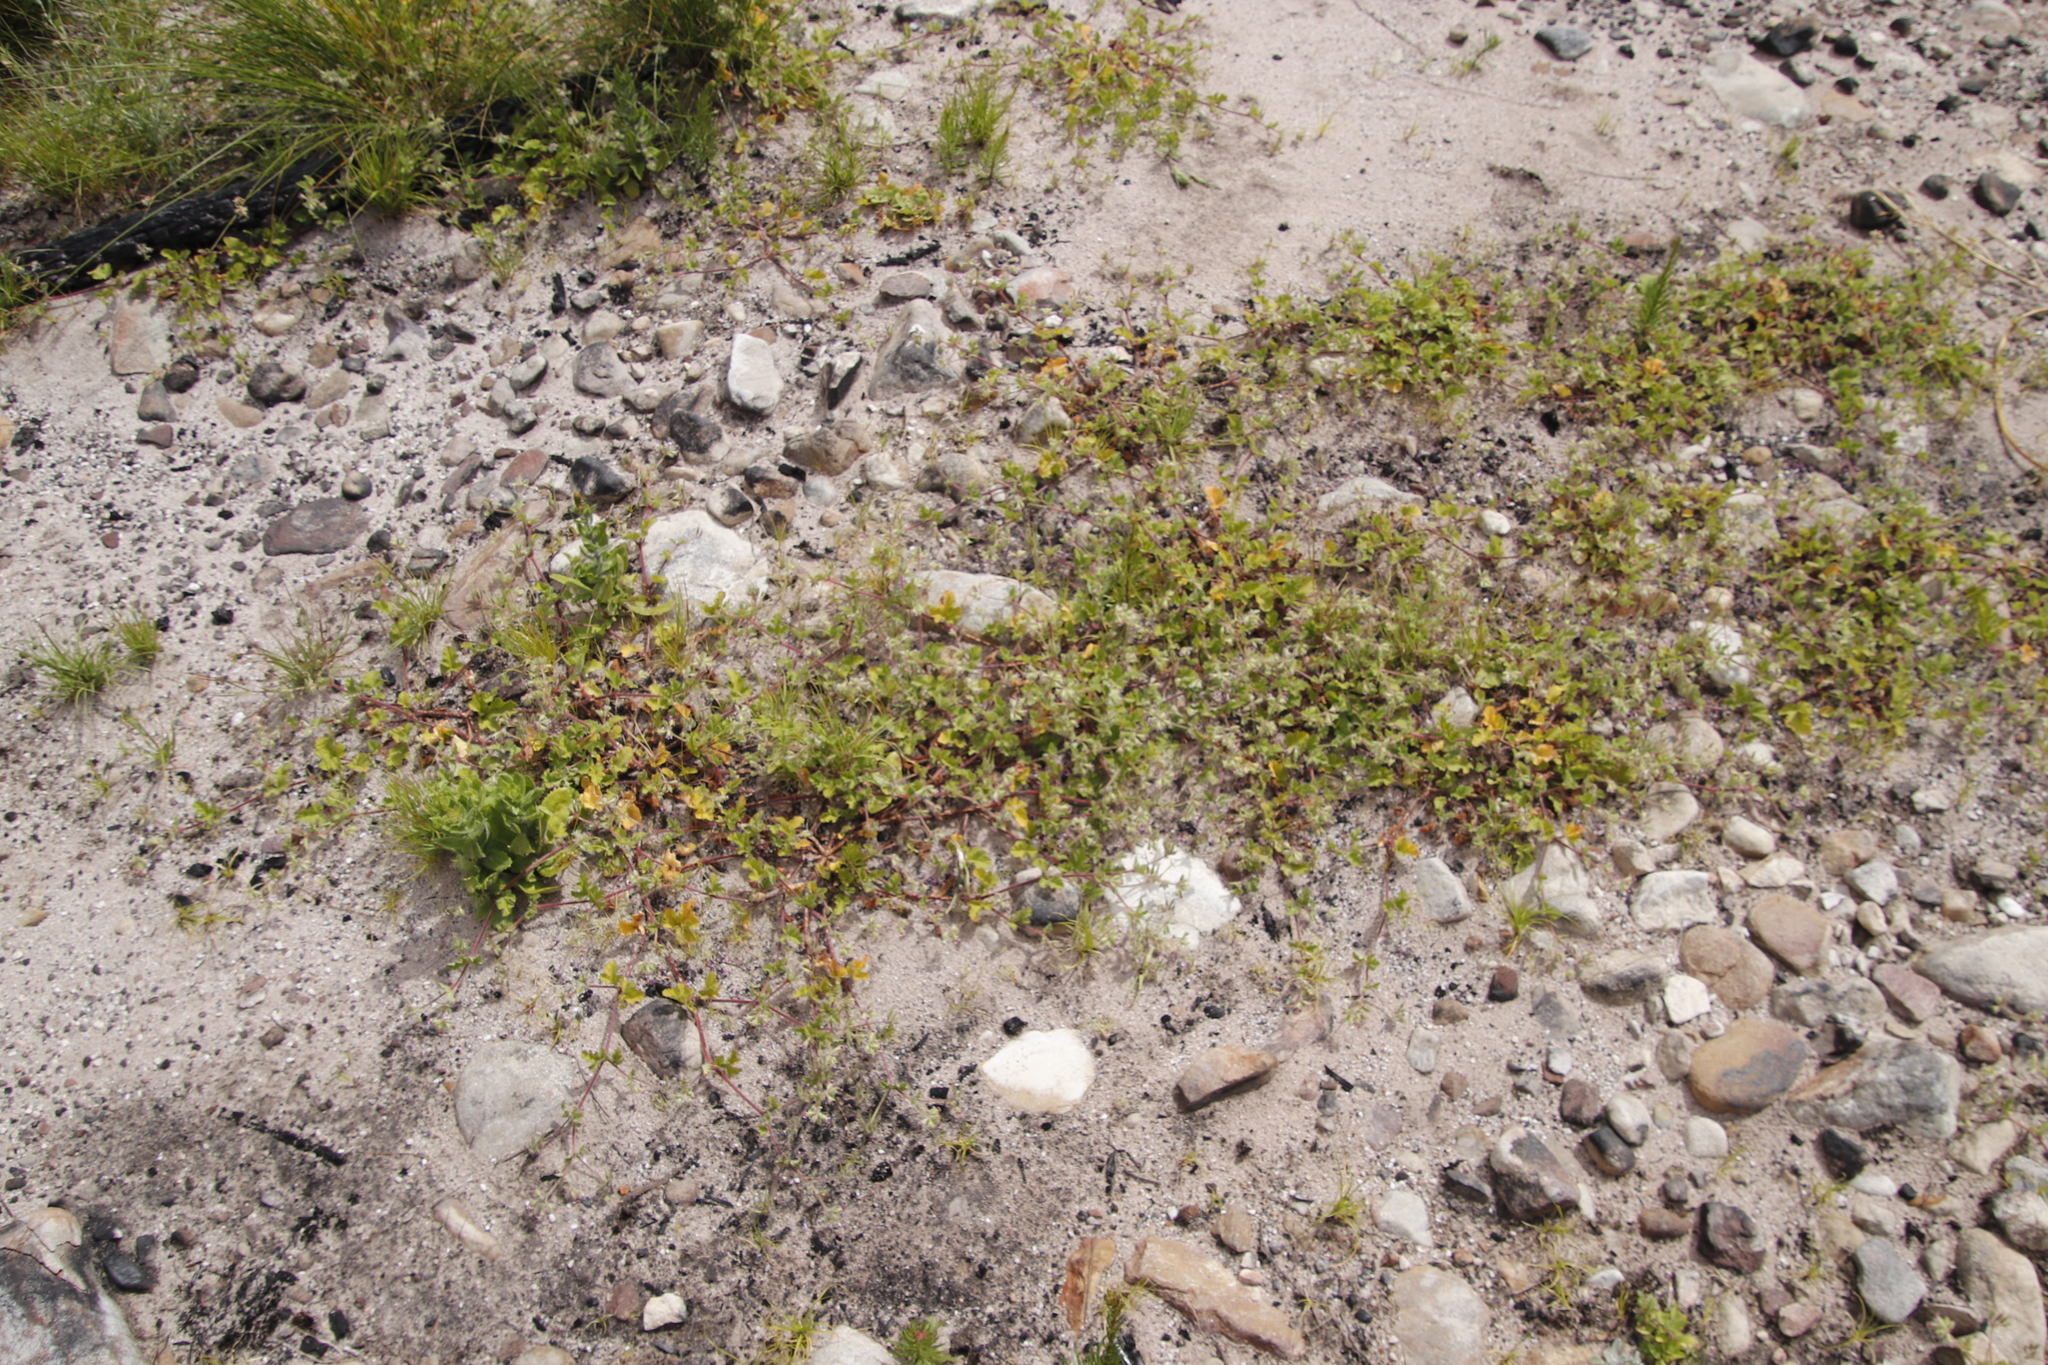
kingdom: Plantae
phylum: Tracheophyta
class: Magnoliopsida
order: Geraniales
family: Geraniaceae
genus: Pelargonium
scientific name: Pelargonium althaeoides
